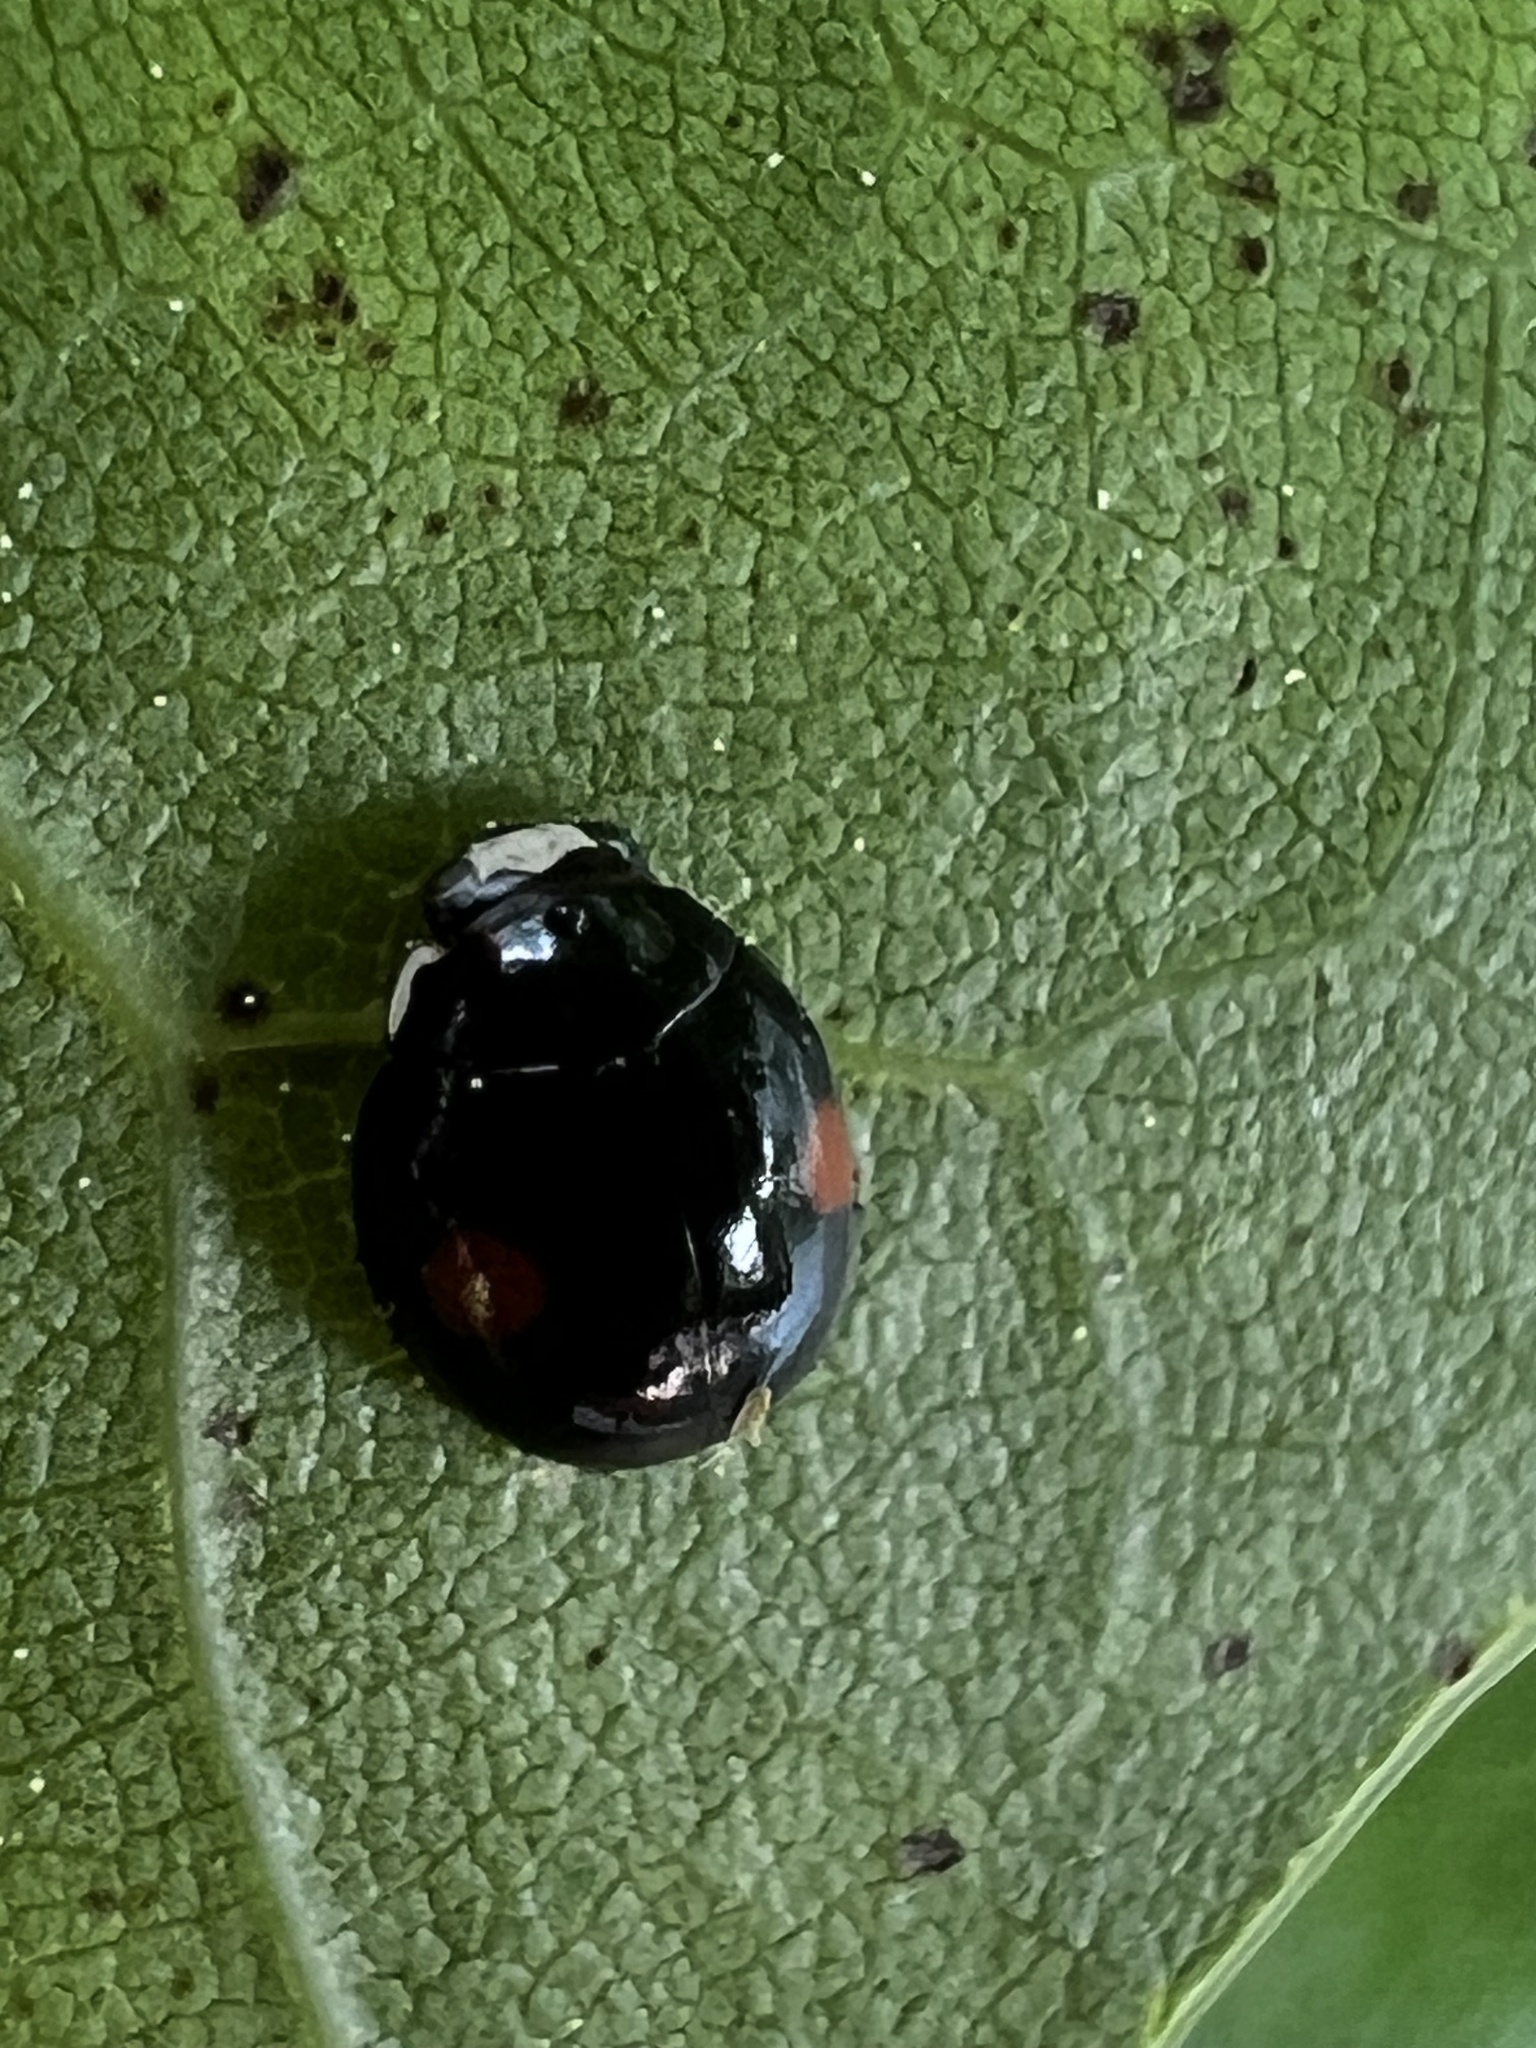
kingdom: Animalia
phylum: Arthropoda
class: Insecta
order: Coleoptera
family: Coccinellidae
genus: Chilocorus
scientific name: Chilocorus stigma
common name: Twicestabbed lady beetle
